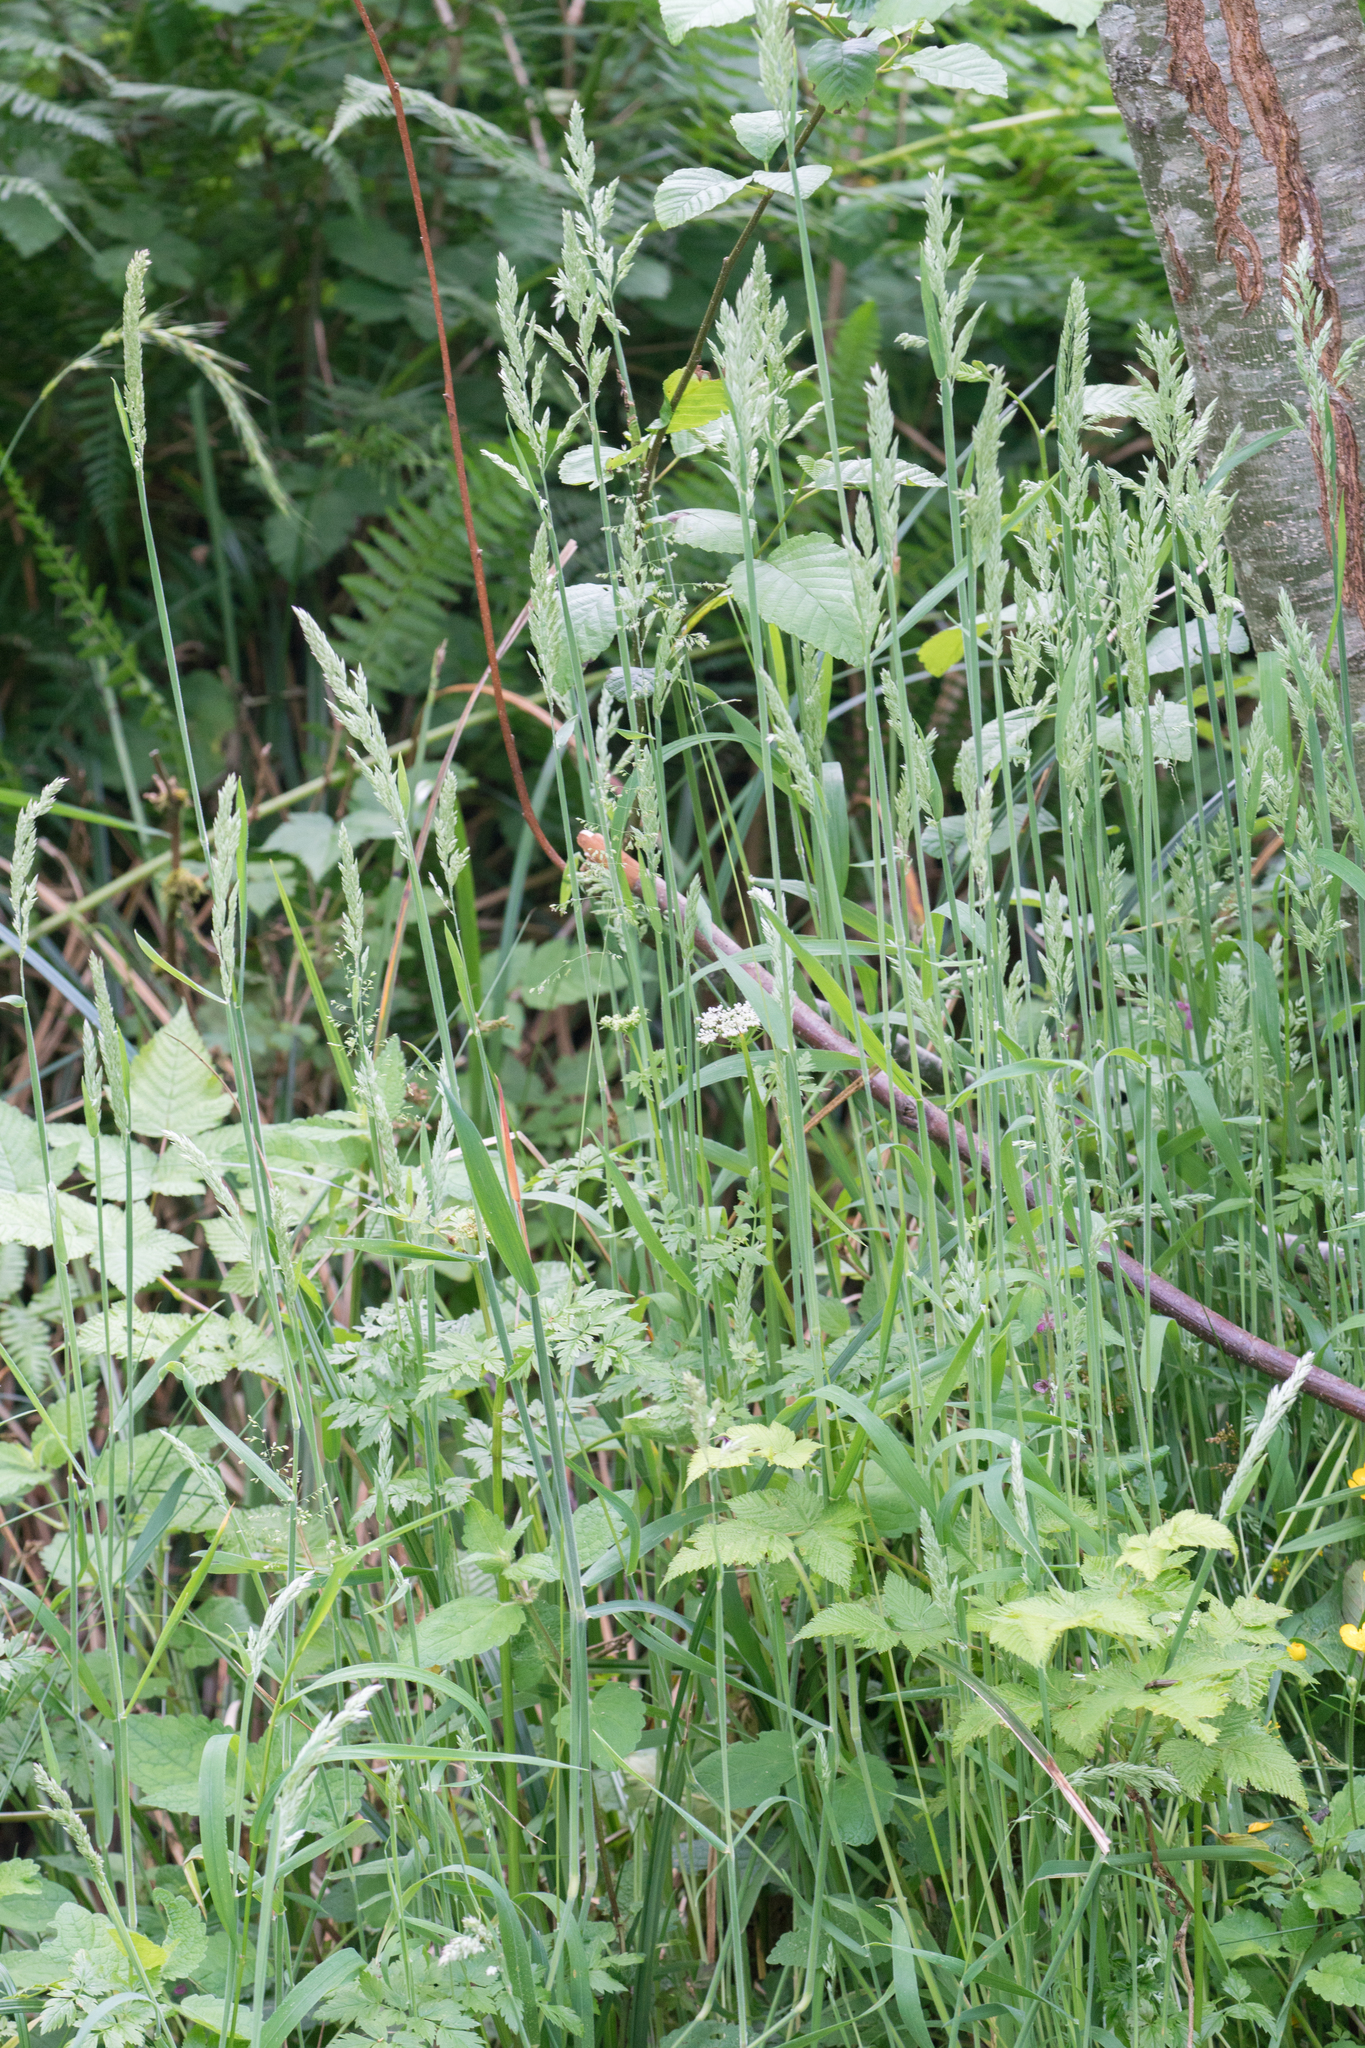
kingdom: Plantae
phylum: Tracheophyta
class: Liliopsida
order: Poales
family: Poaceae
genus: Holcus
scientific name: Holcus lanatus
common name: Yorkshire-fog
